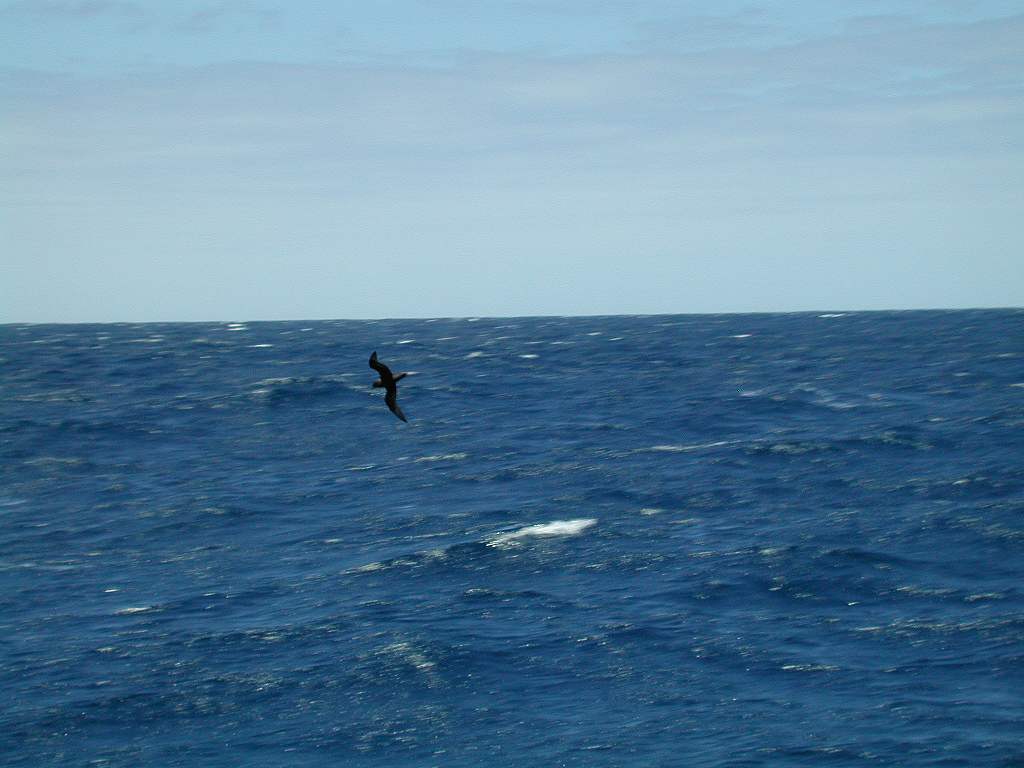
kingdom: Animalia
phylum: Chordata
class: Aves
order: Procellariiformes
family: Procellariidae
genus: Pterodroma
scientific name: Pterodroma macroptera
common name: Great-winged petrel
